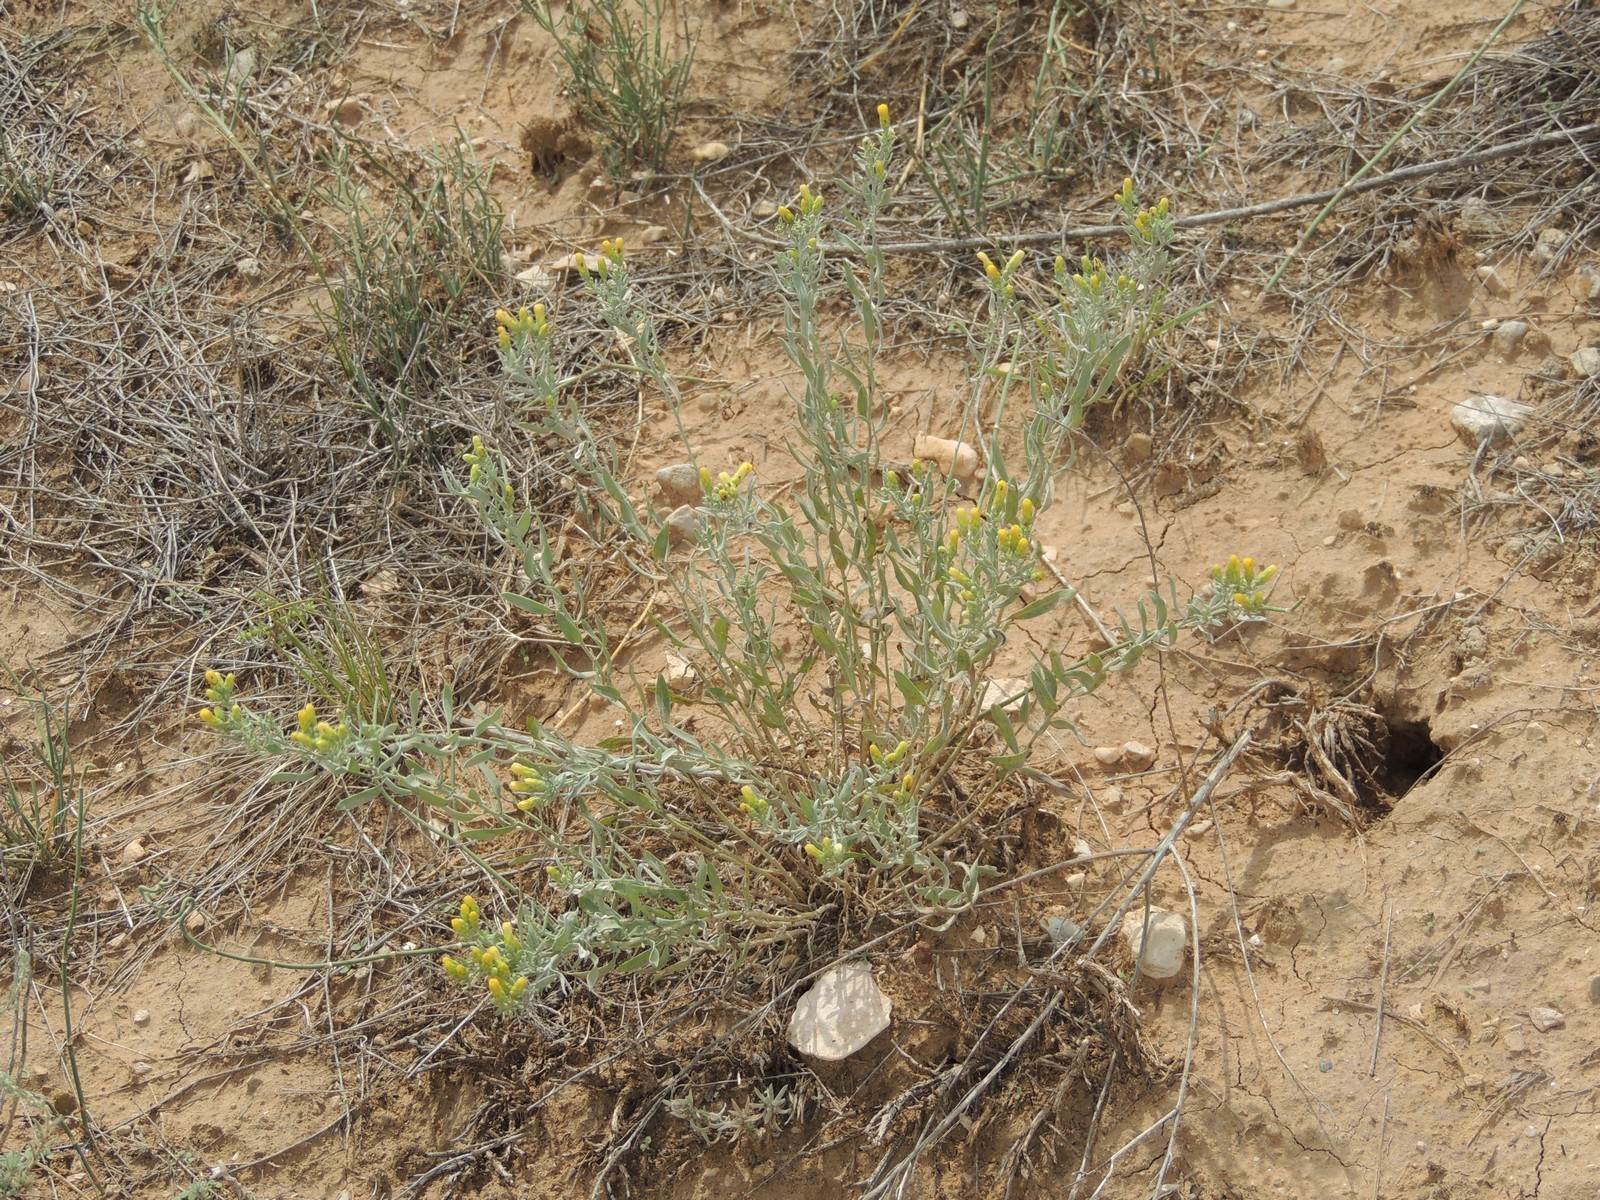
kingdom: Plantae
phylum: Tracheophyta
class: Magnoliopsida
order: Asterales
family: Asteraceae
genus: Galatella
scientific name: Galatella sedifolia
